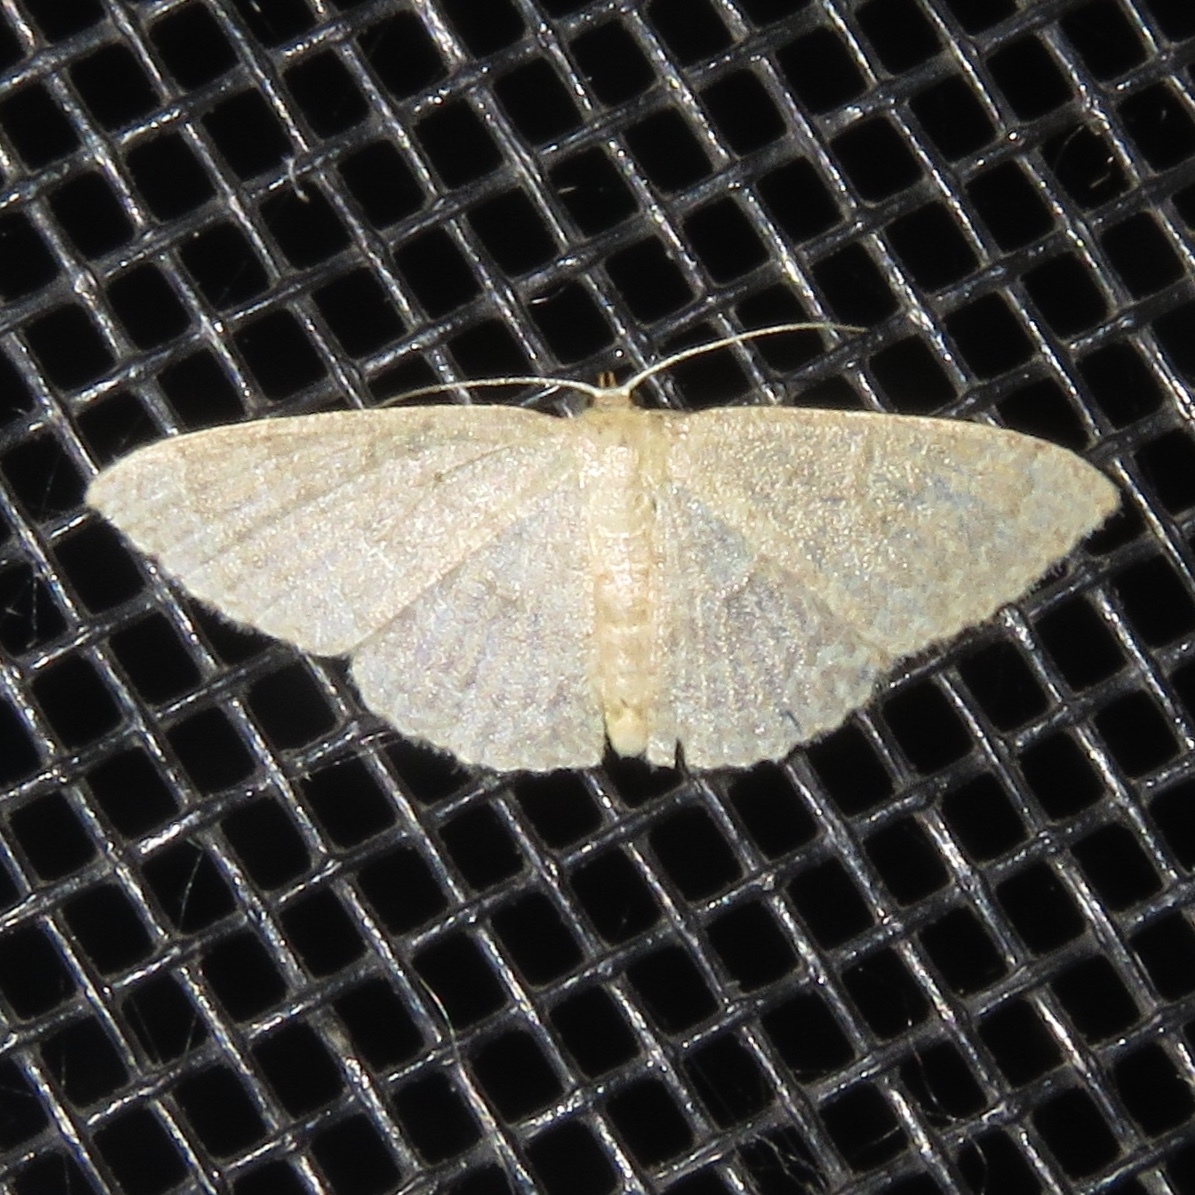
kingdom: Animalia
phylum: Arthropoda
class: Insecta
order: Lepidoptera
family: Geometridae
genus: Pleuroprucha
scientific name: Pleuroprucha insulsaria
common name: Common tan wave
